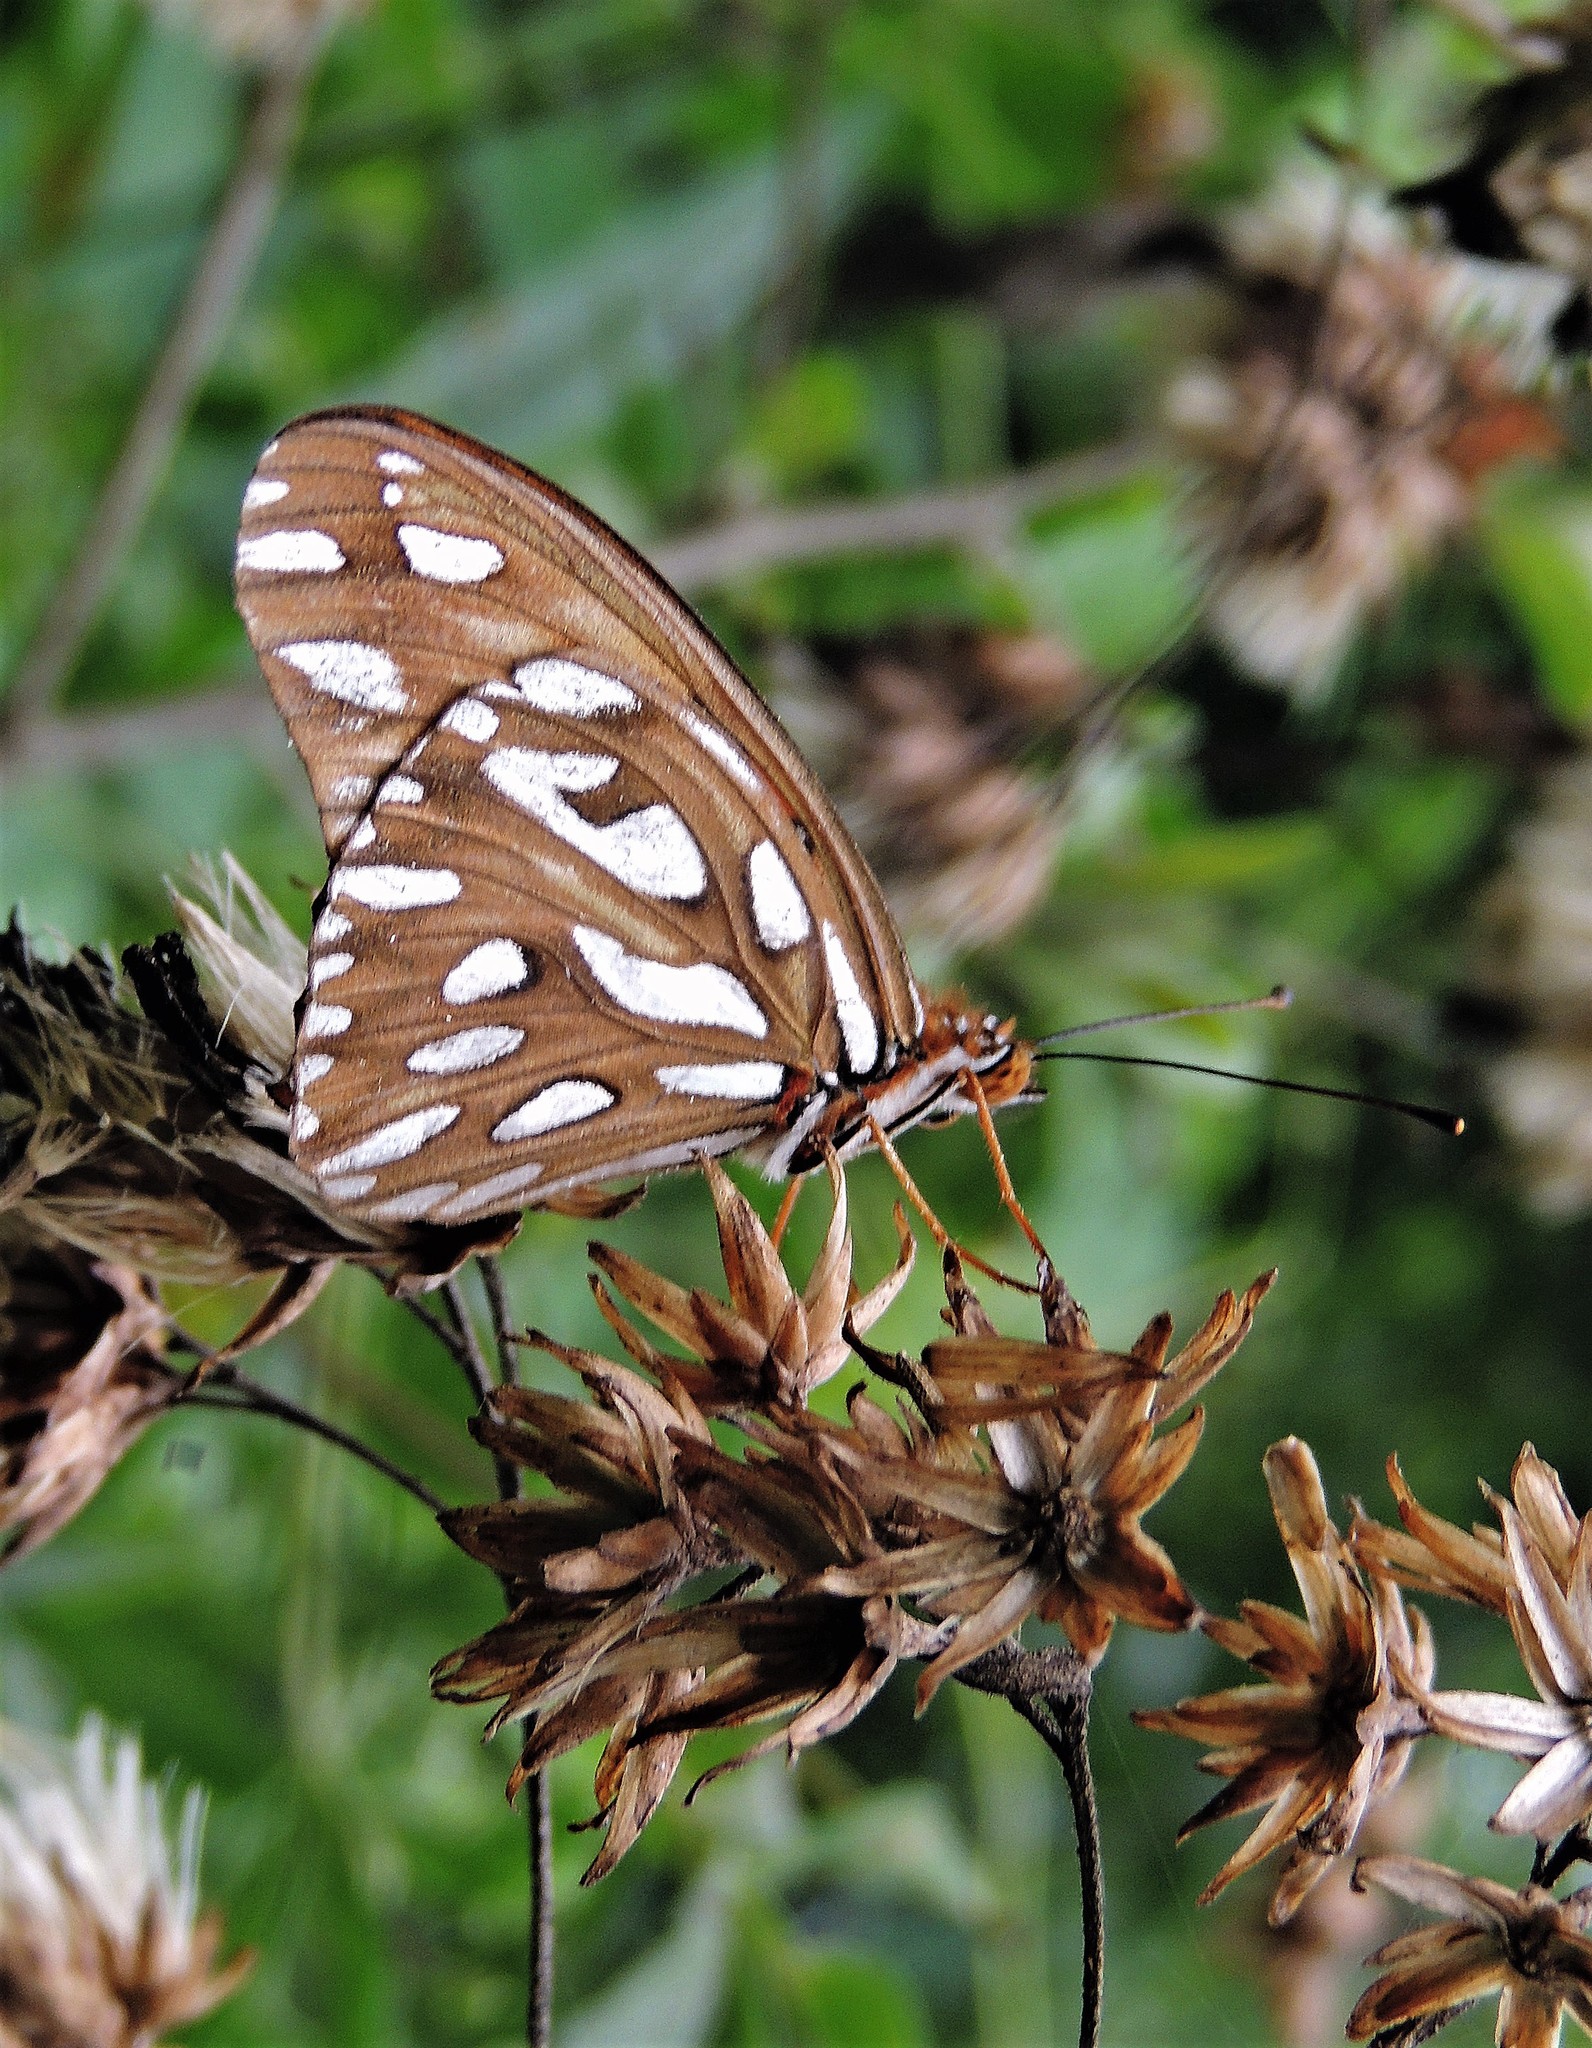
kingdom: Animalia
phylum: Arthropoda
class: Insecta
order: Lepidoptera
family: Nymphalidae
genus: Dione
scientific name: Dione vanillae
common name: Gulf fritillary
